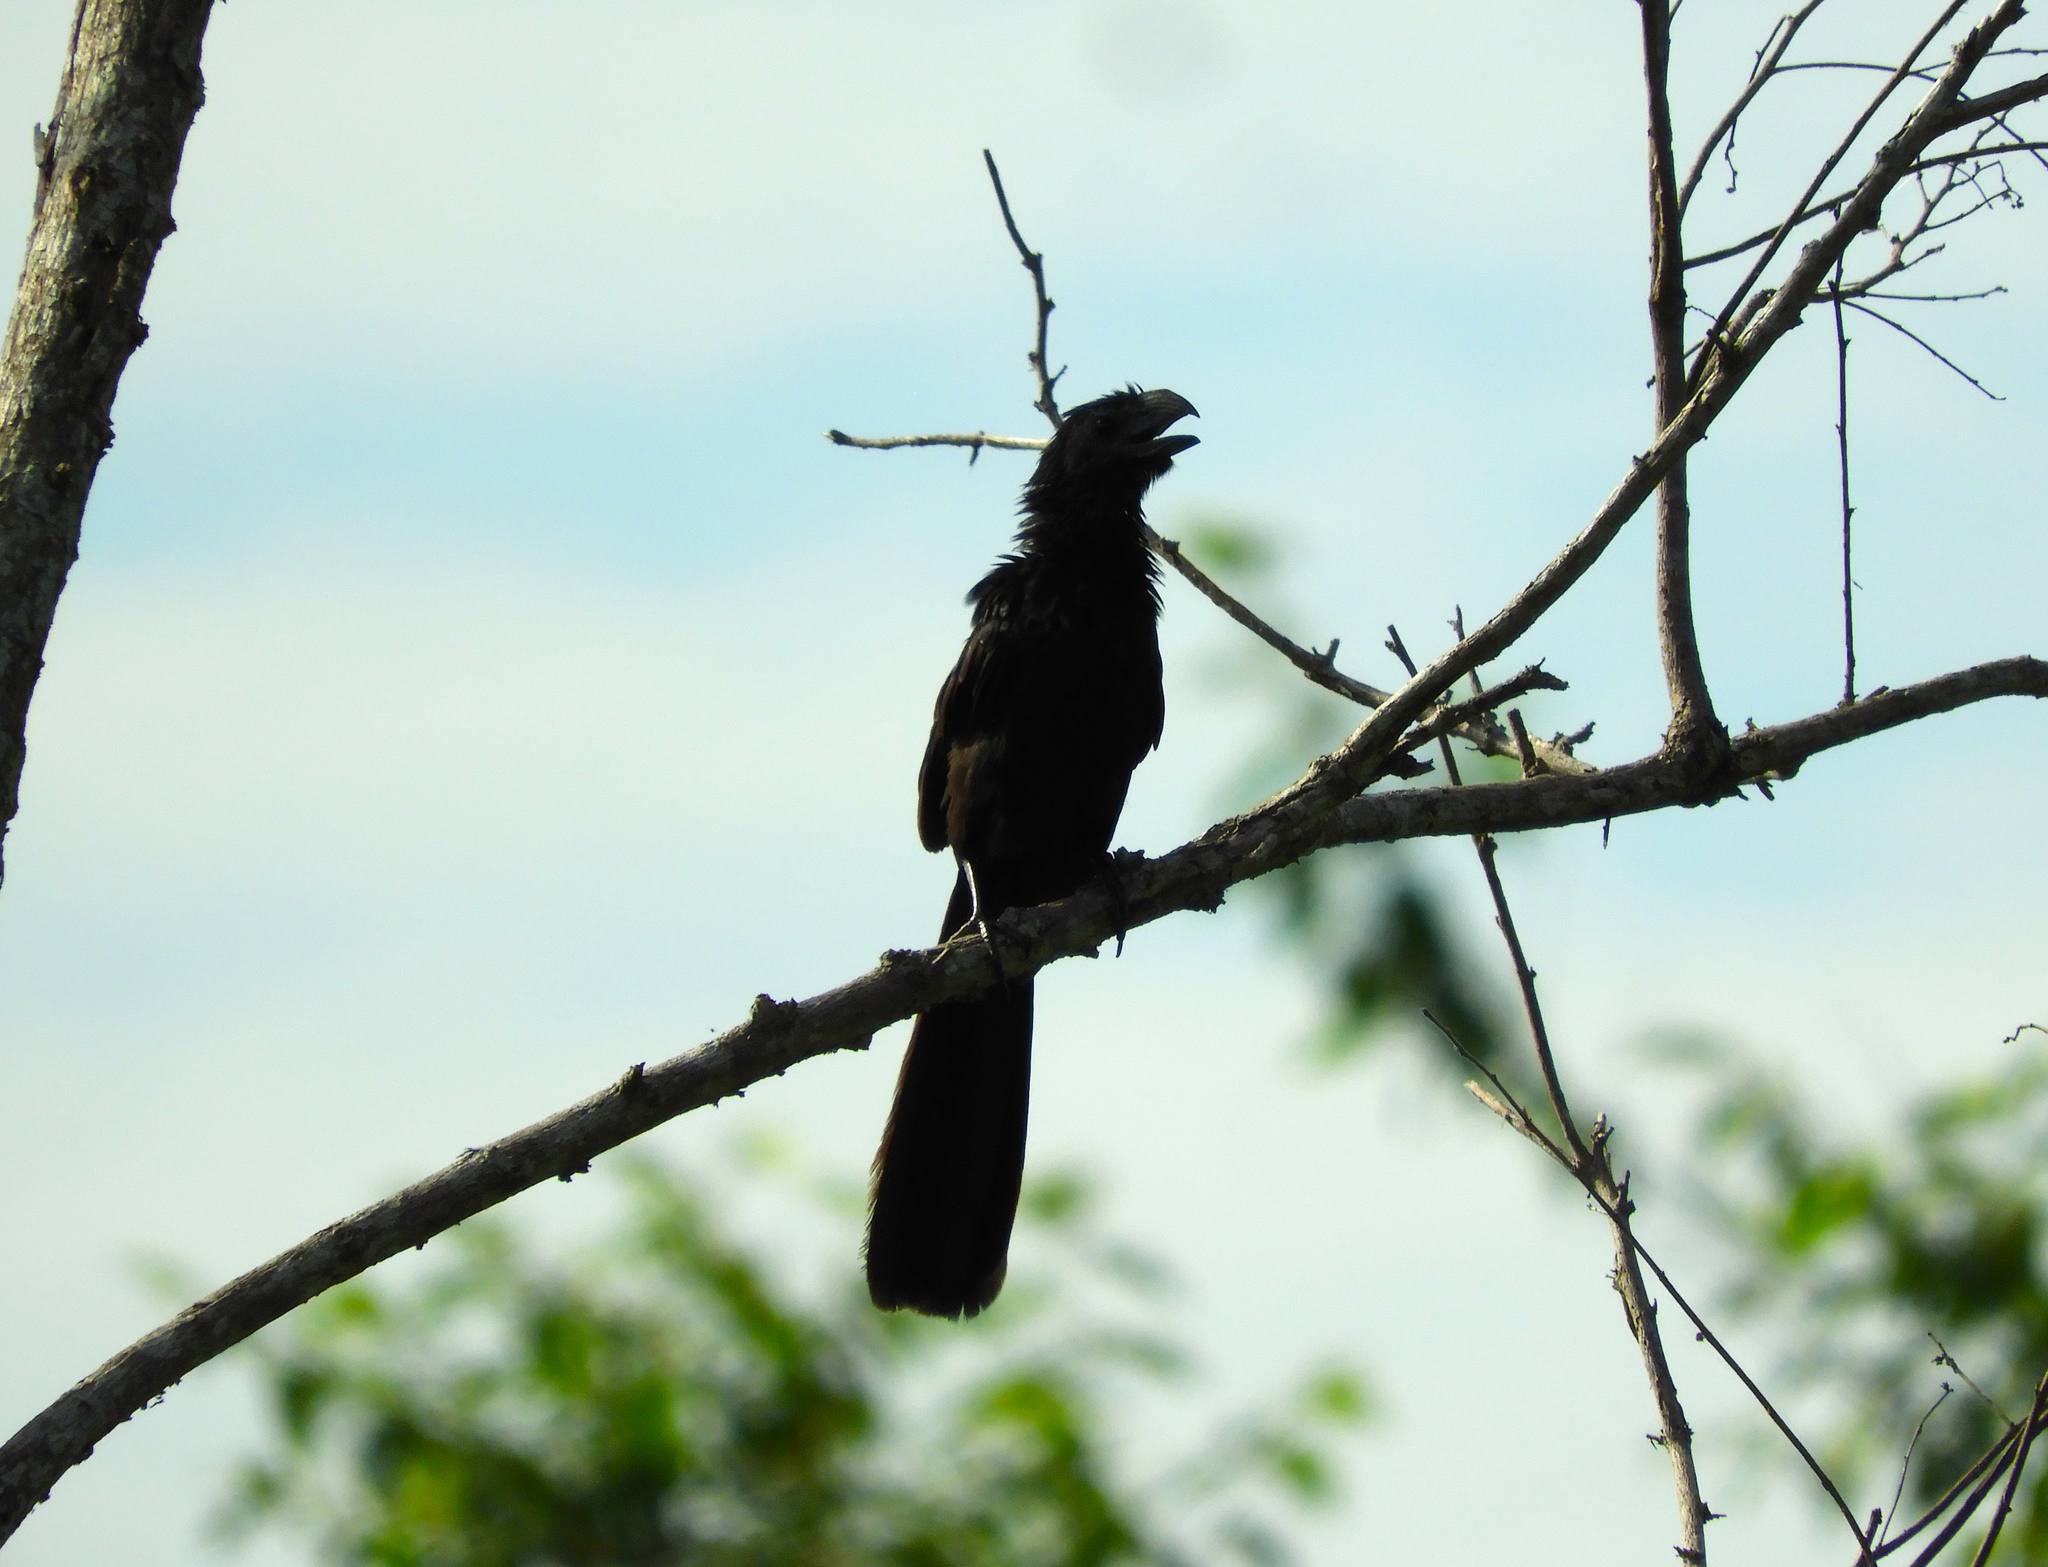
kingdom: Animalia
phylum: Chordata
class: Aves
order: Cuculiformes
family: Cuculidae
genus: Crotophaga
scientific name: Crotophaga sulcirostris
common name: Groove-billed ani
